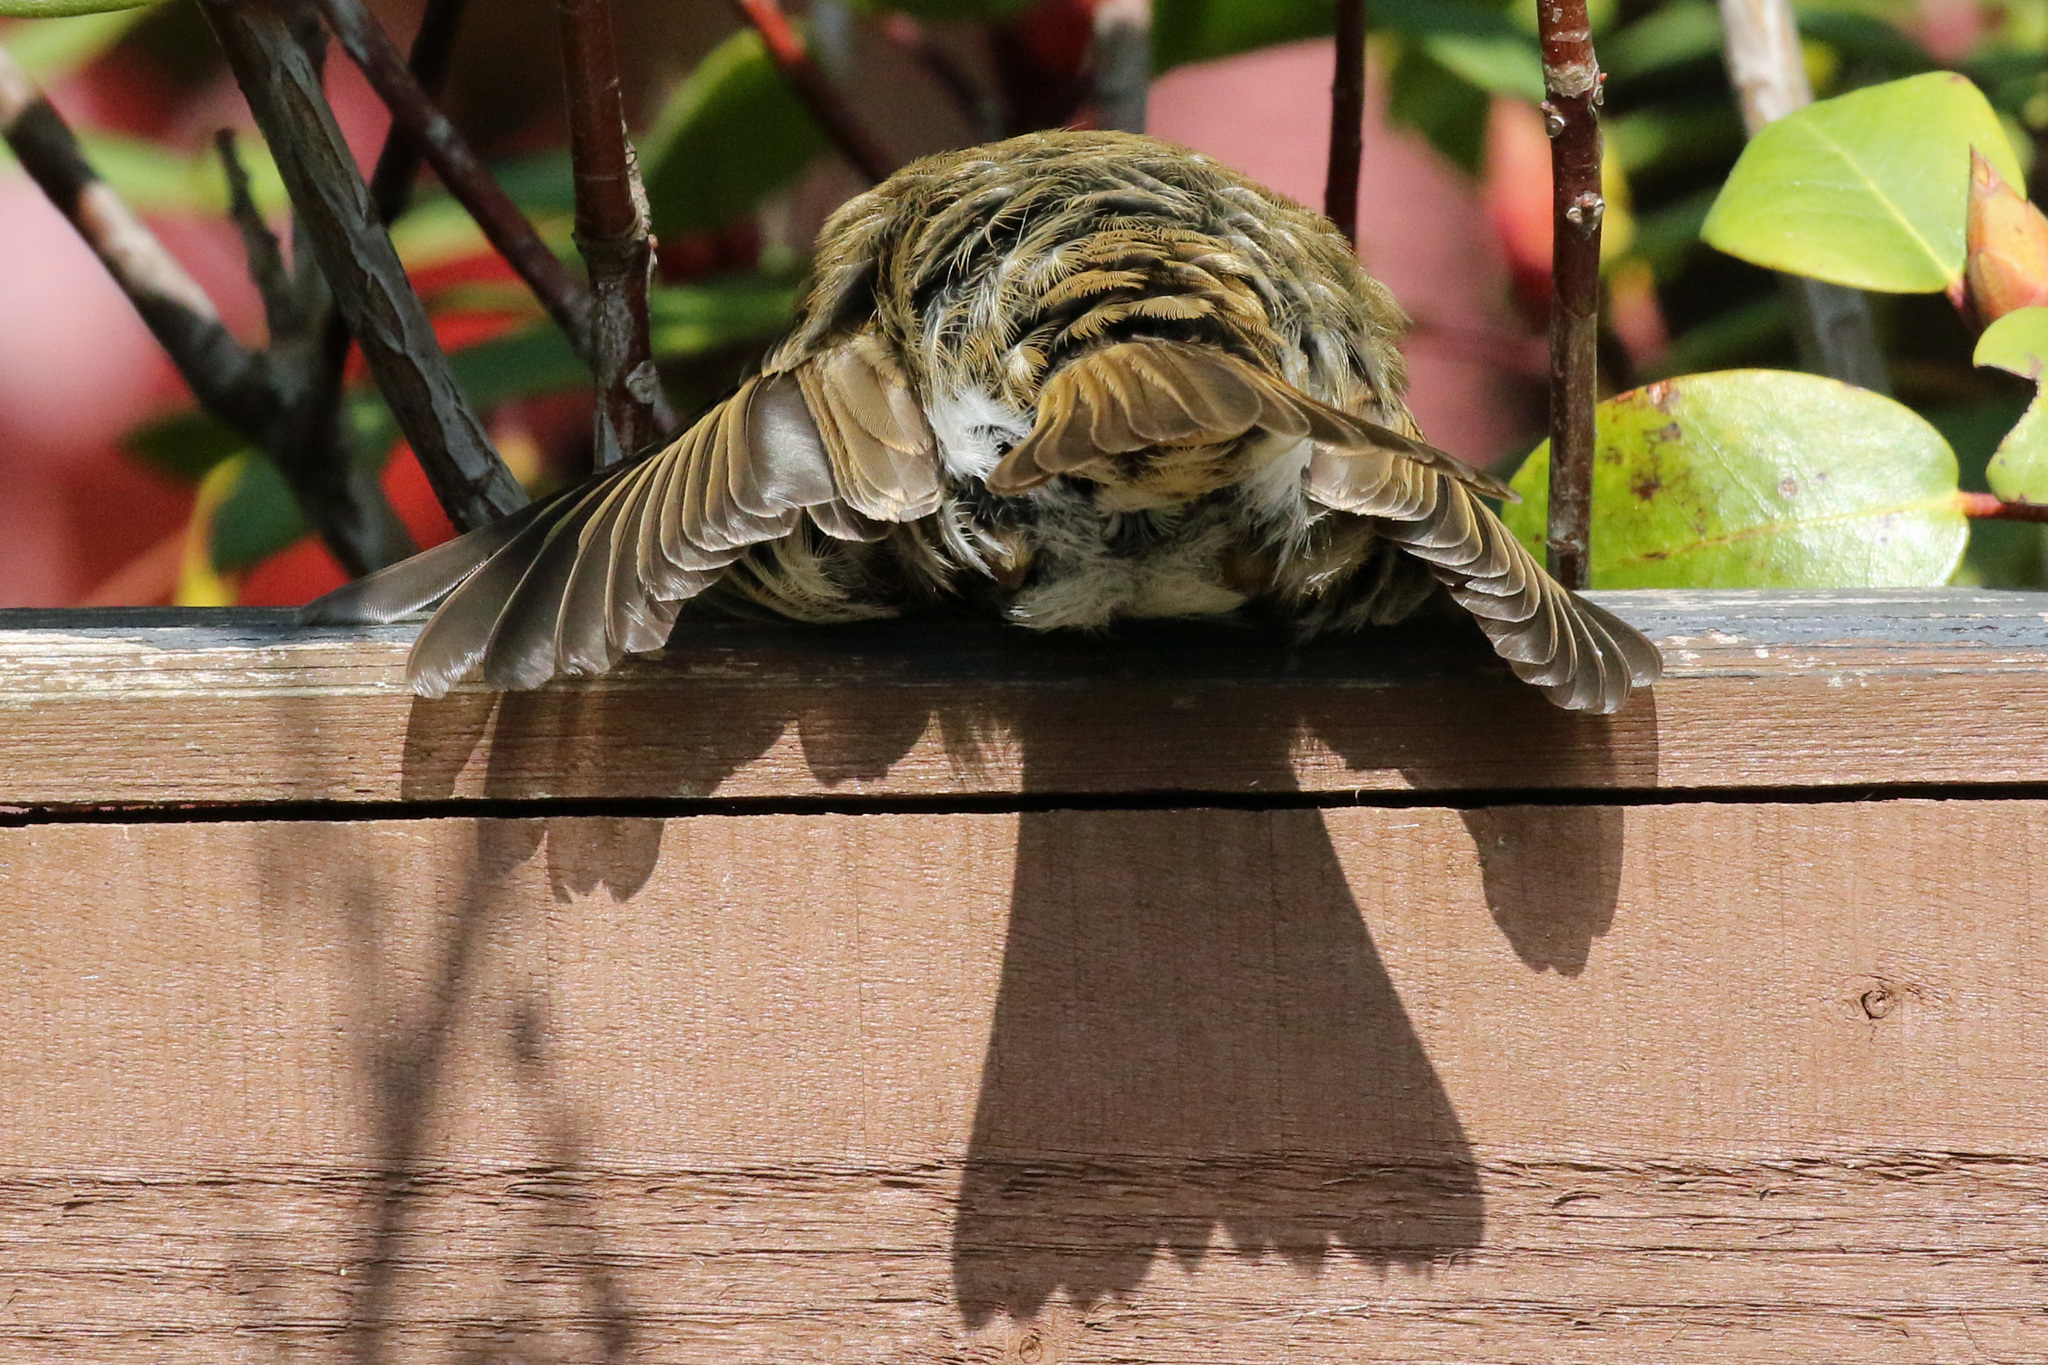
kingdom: Animalia
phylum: Chordata
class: Aves
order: Passeriformes
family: Muscicapidae
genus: Erithacus
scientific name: Erithacus rubecula
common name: European robin
